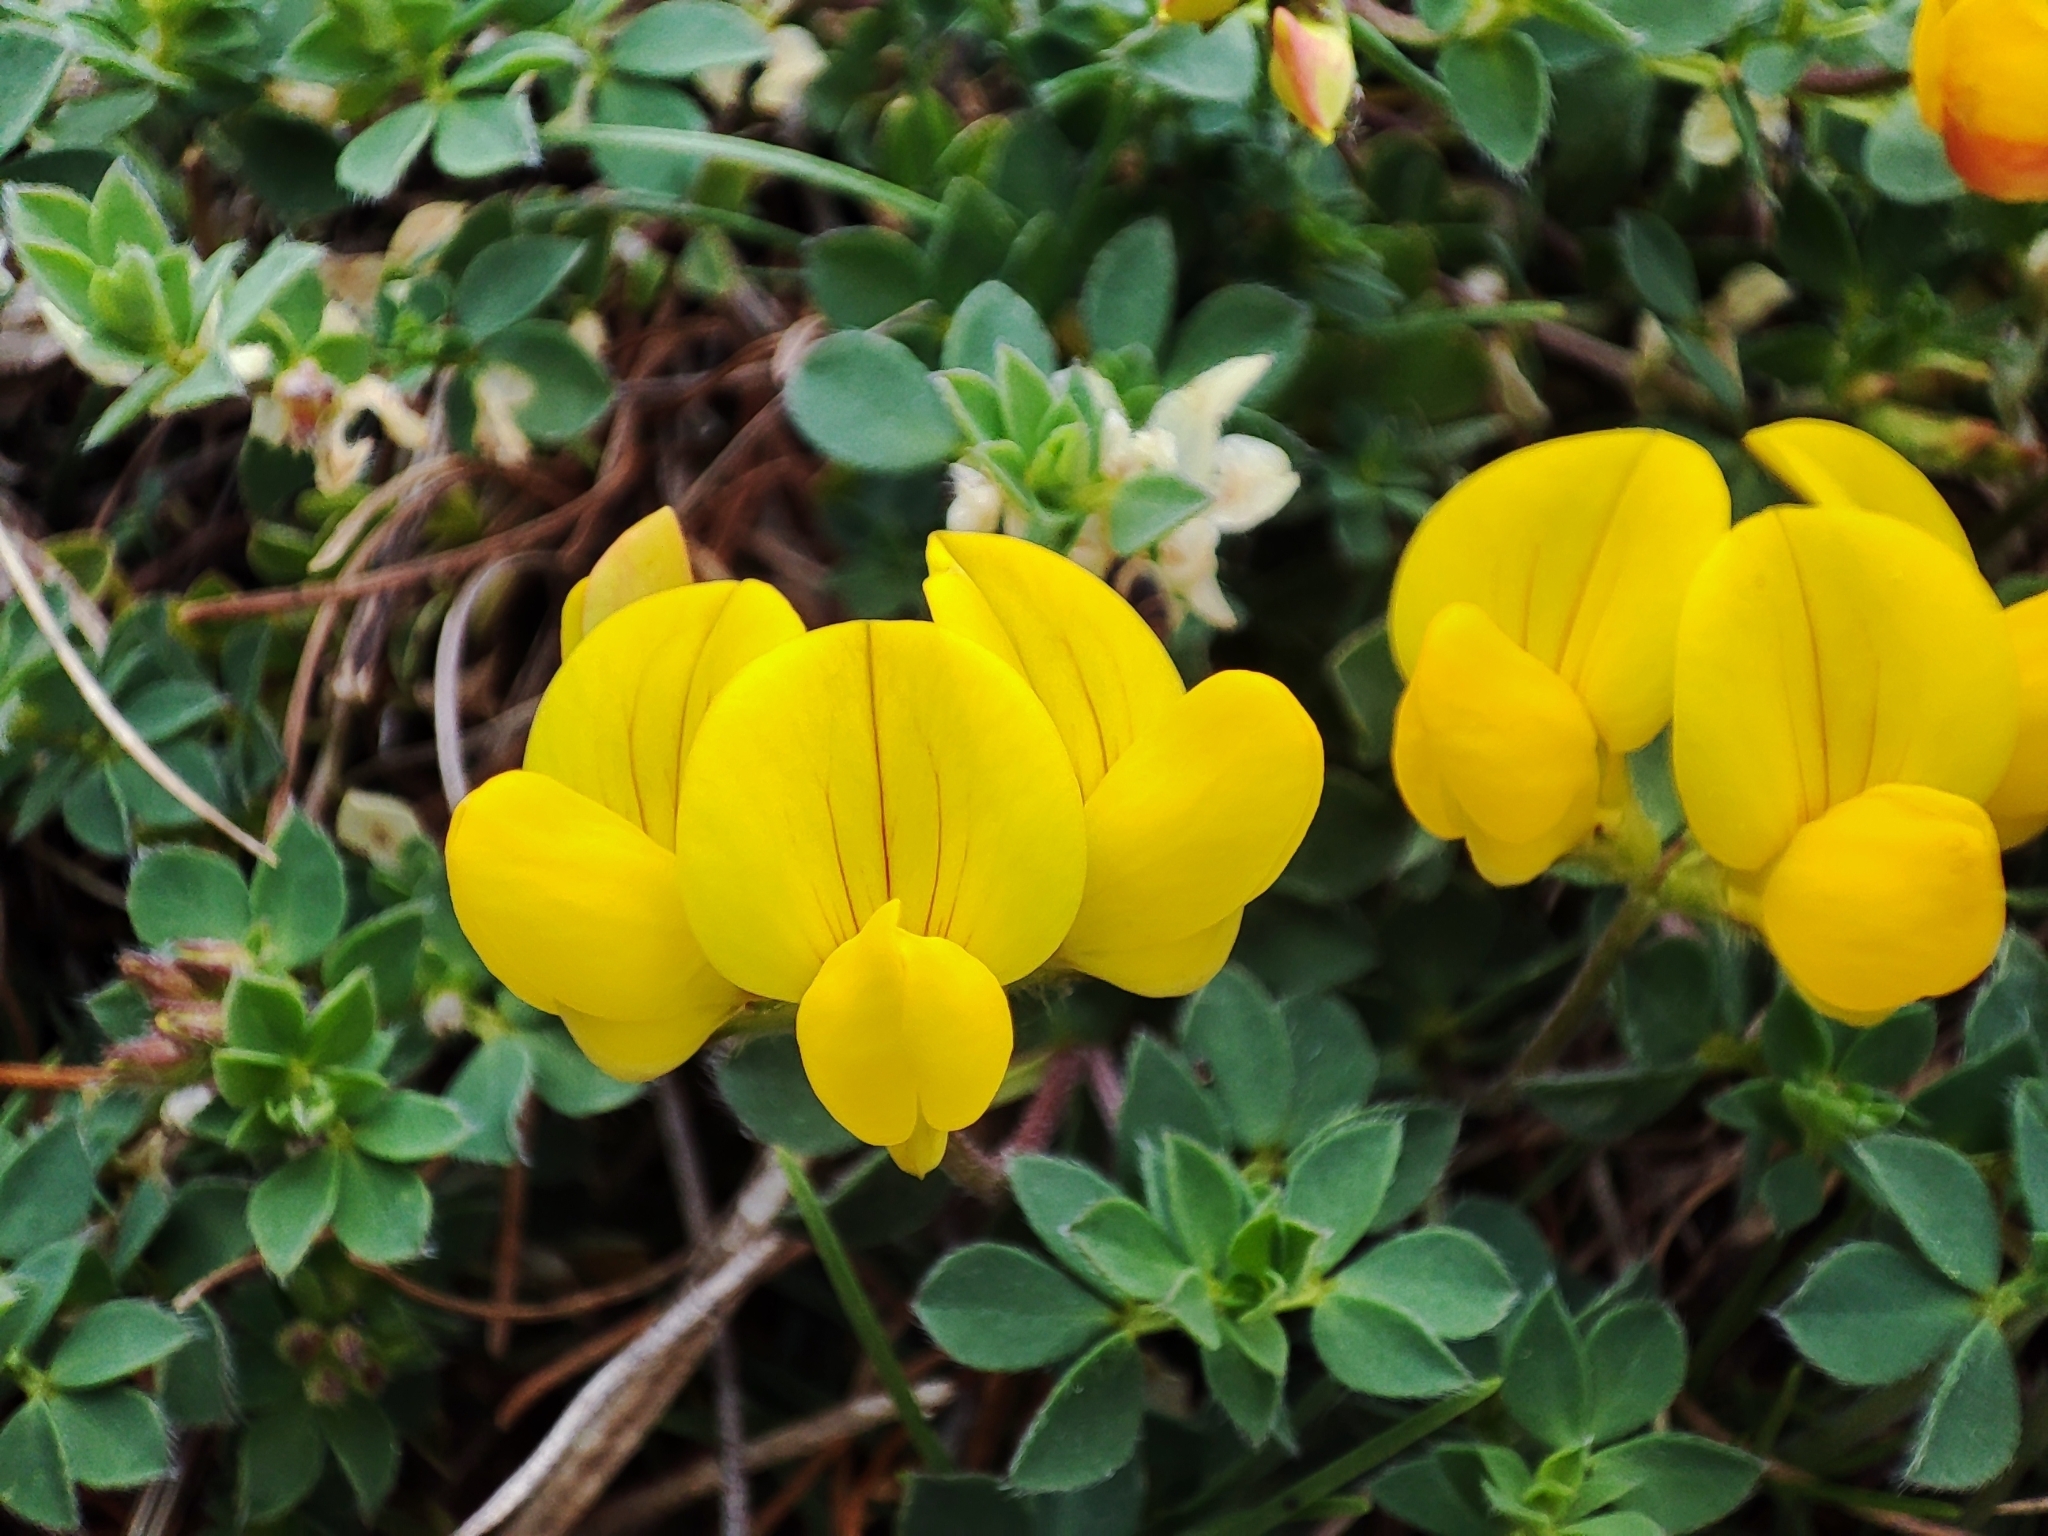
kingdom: Plantae
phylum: Tracheophyta
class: Magnoliopsida
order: Fabales
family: Fabaceae
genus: Lotus
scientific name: Lotus corniculatus
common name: Common bird's-foot-trefoil
